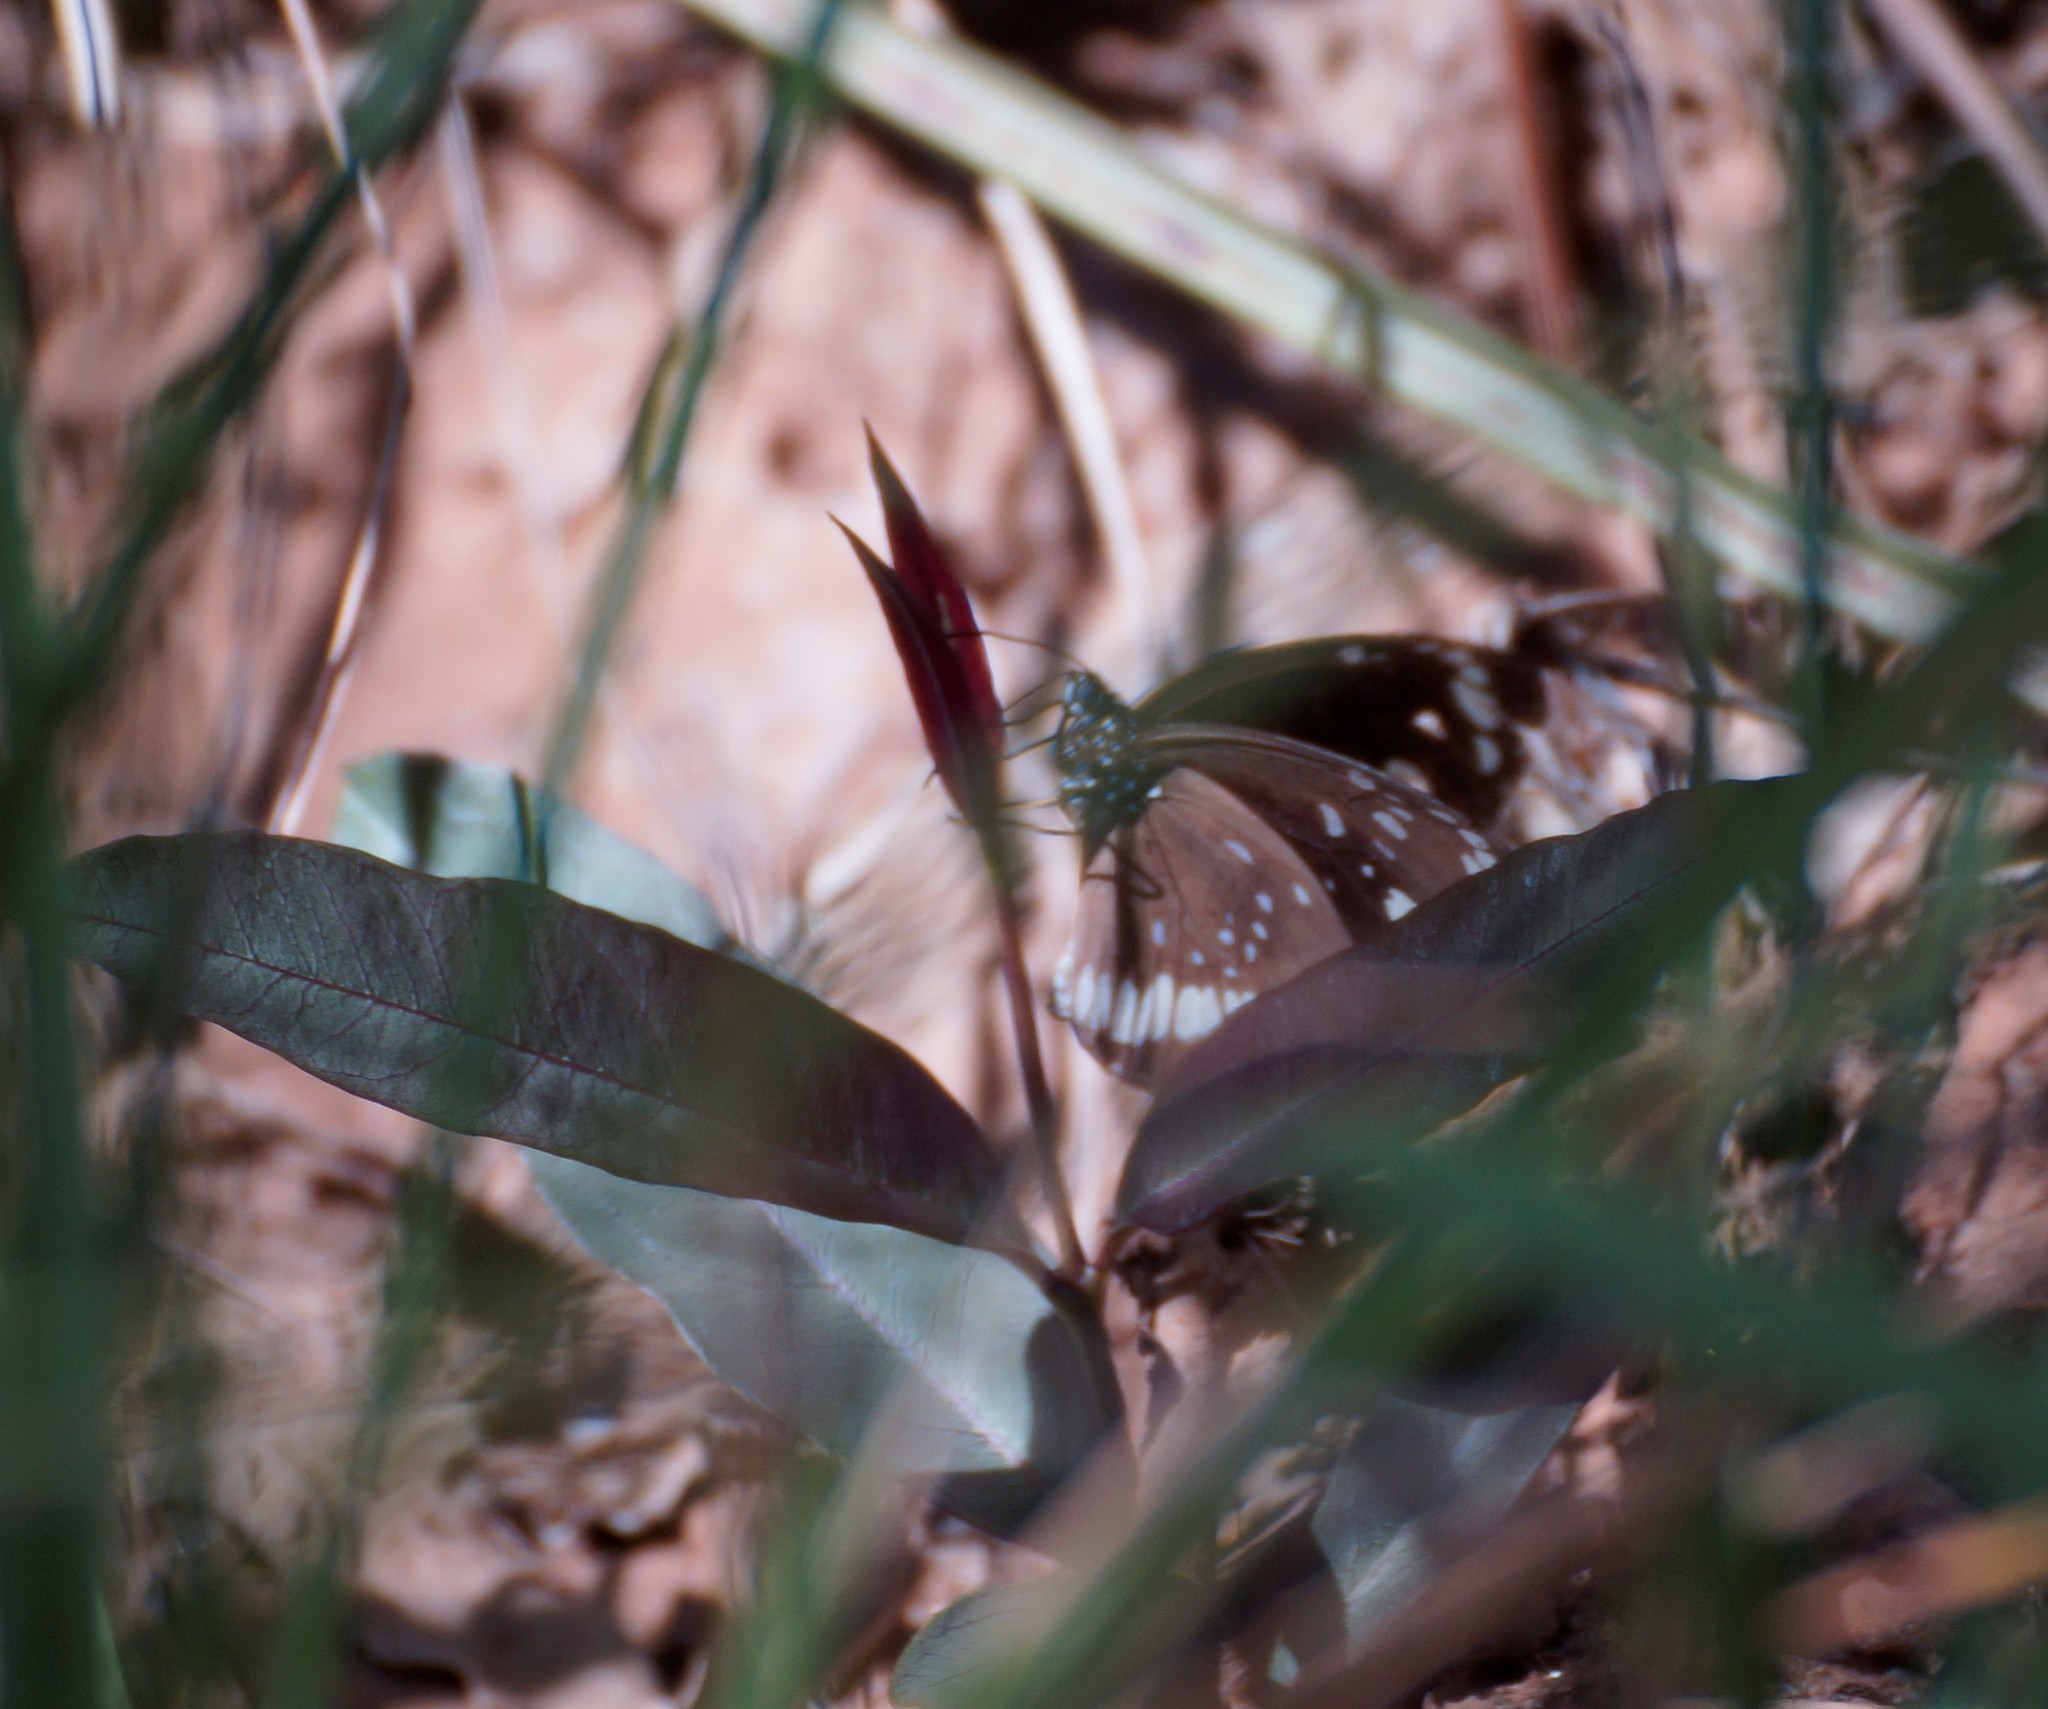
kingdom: Animalia
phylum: Arthropoda
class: Insecta
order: Lepidoptera
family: Nymphalidae
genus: Euploea
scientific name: Euploea core
